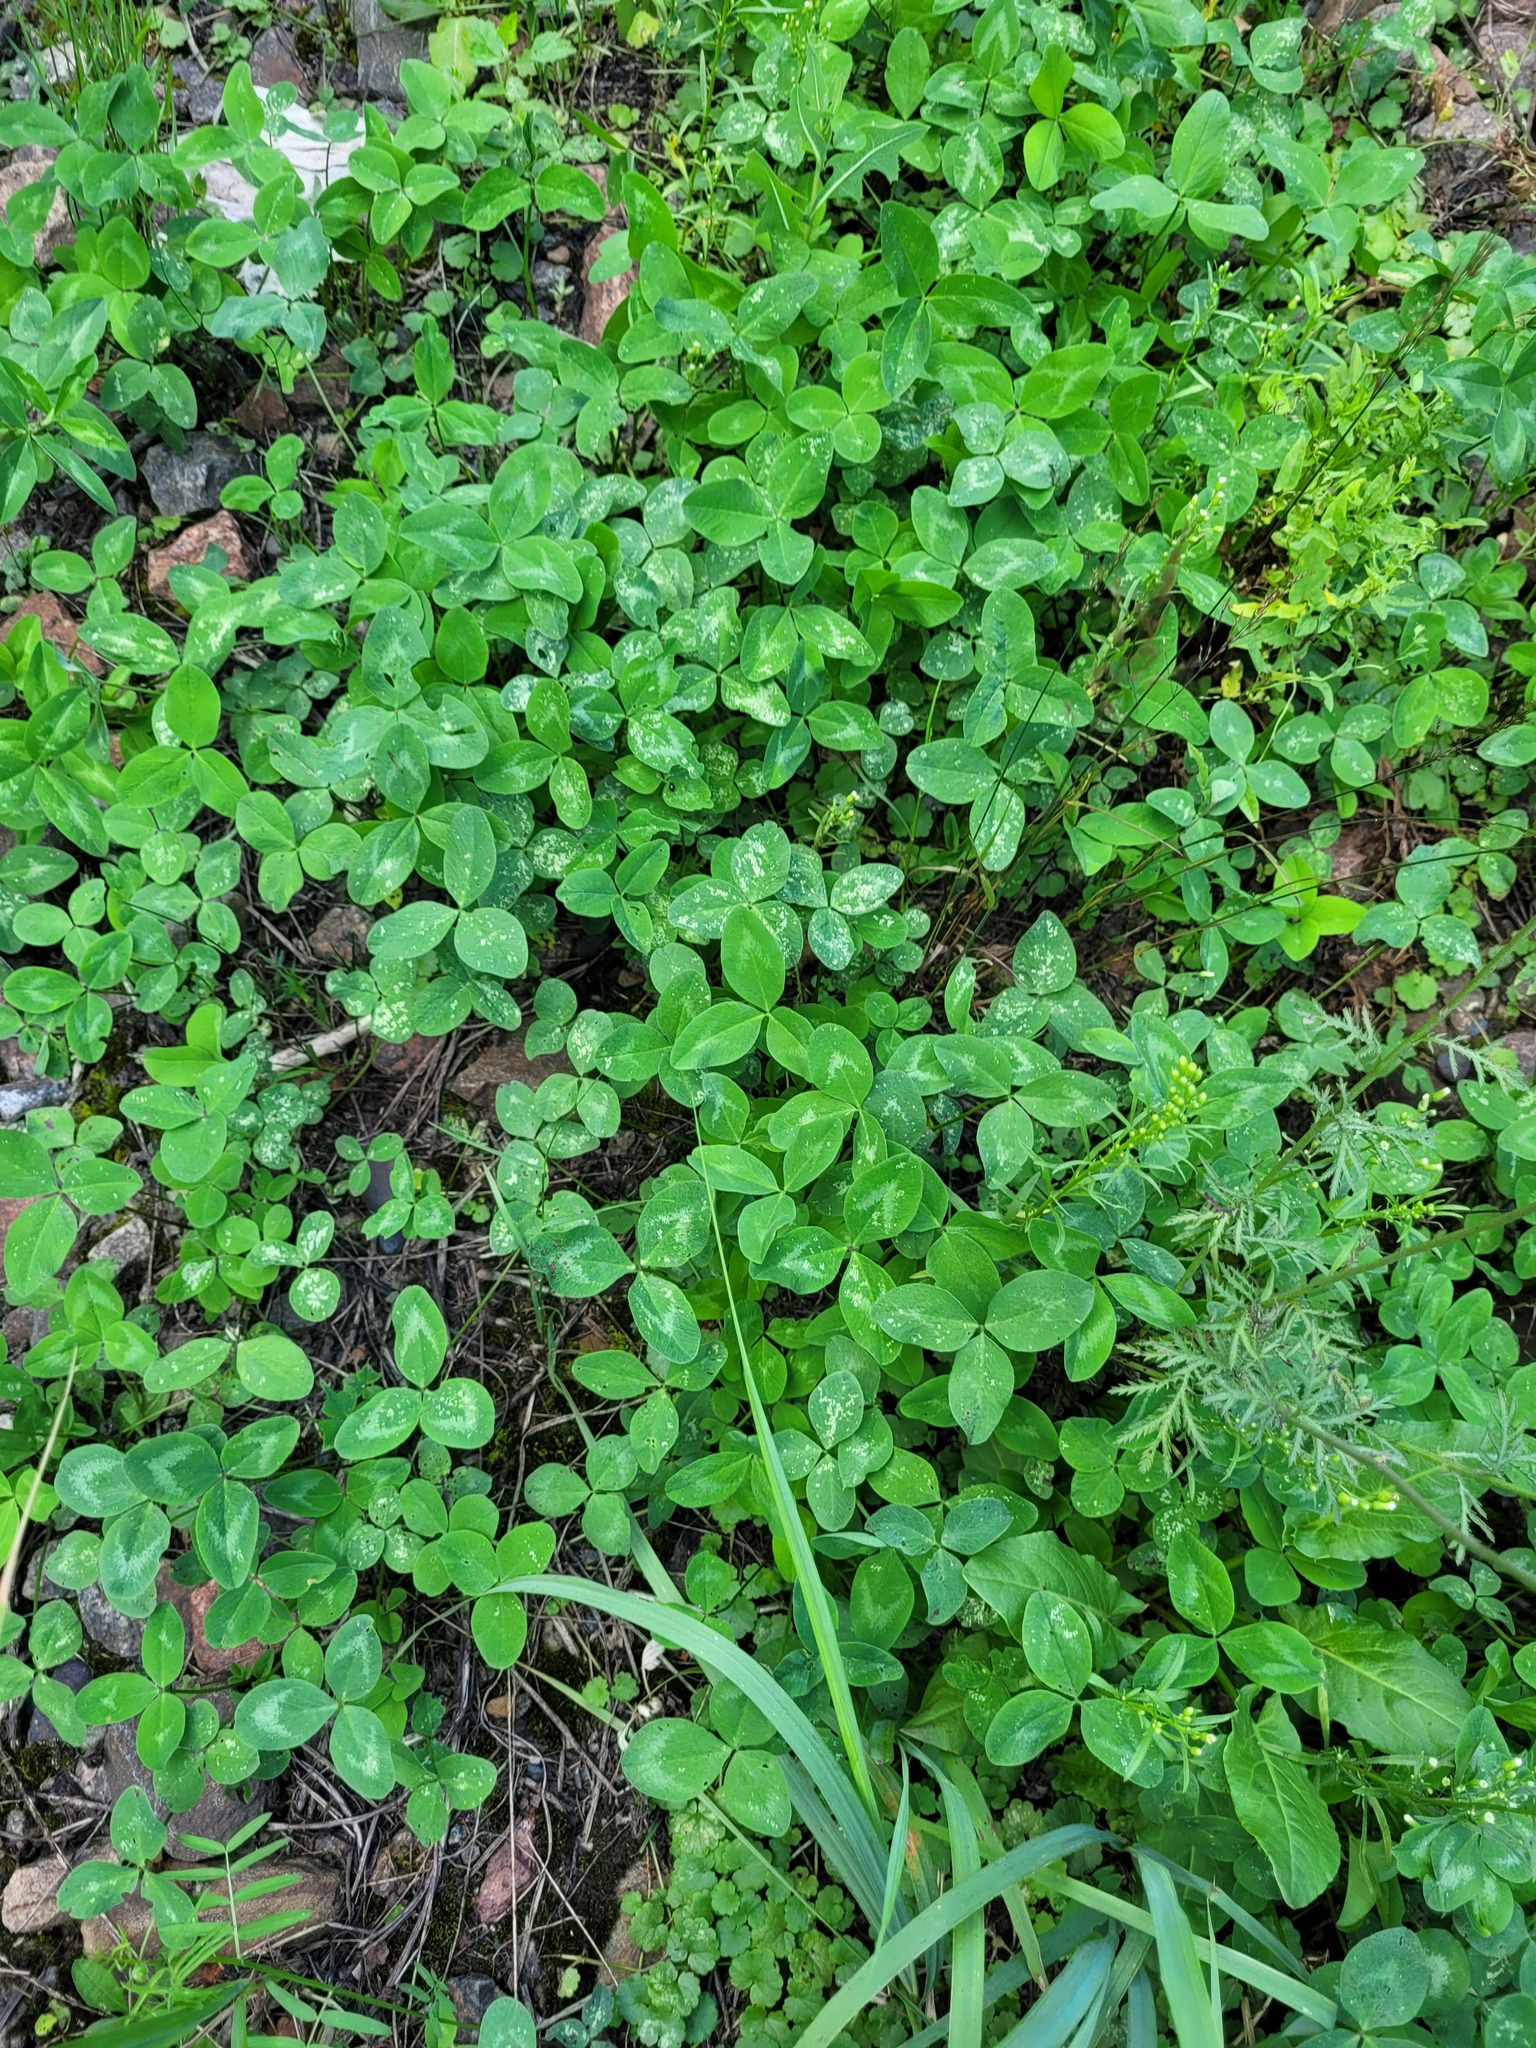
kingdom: Plantae
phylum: Tracheophyta
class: Magnoliopsida
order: Fabales
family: Fabaceae
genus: Trifolium
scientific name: Trifolium pratense
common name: Red clover
